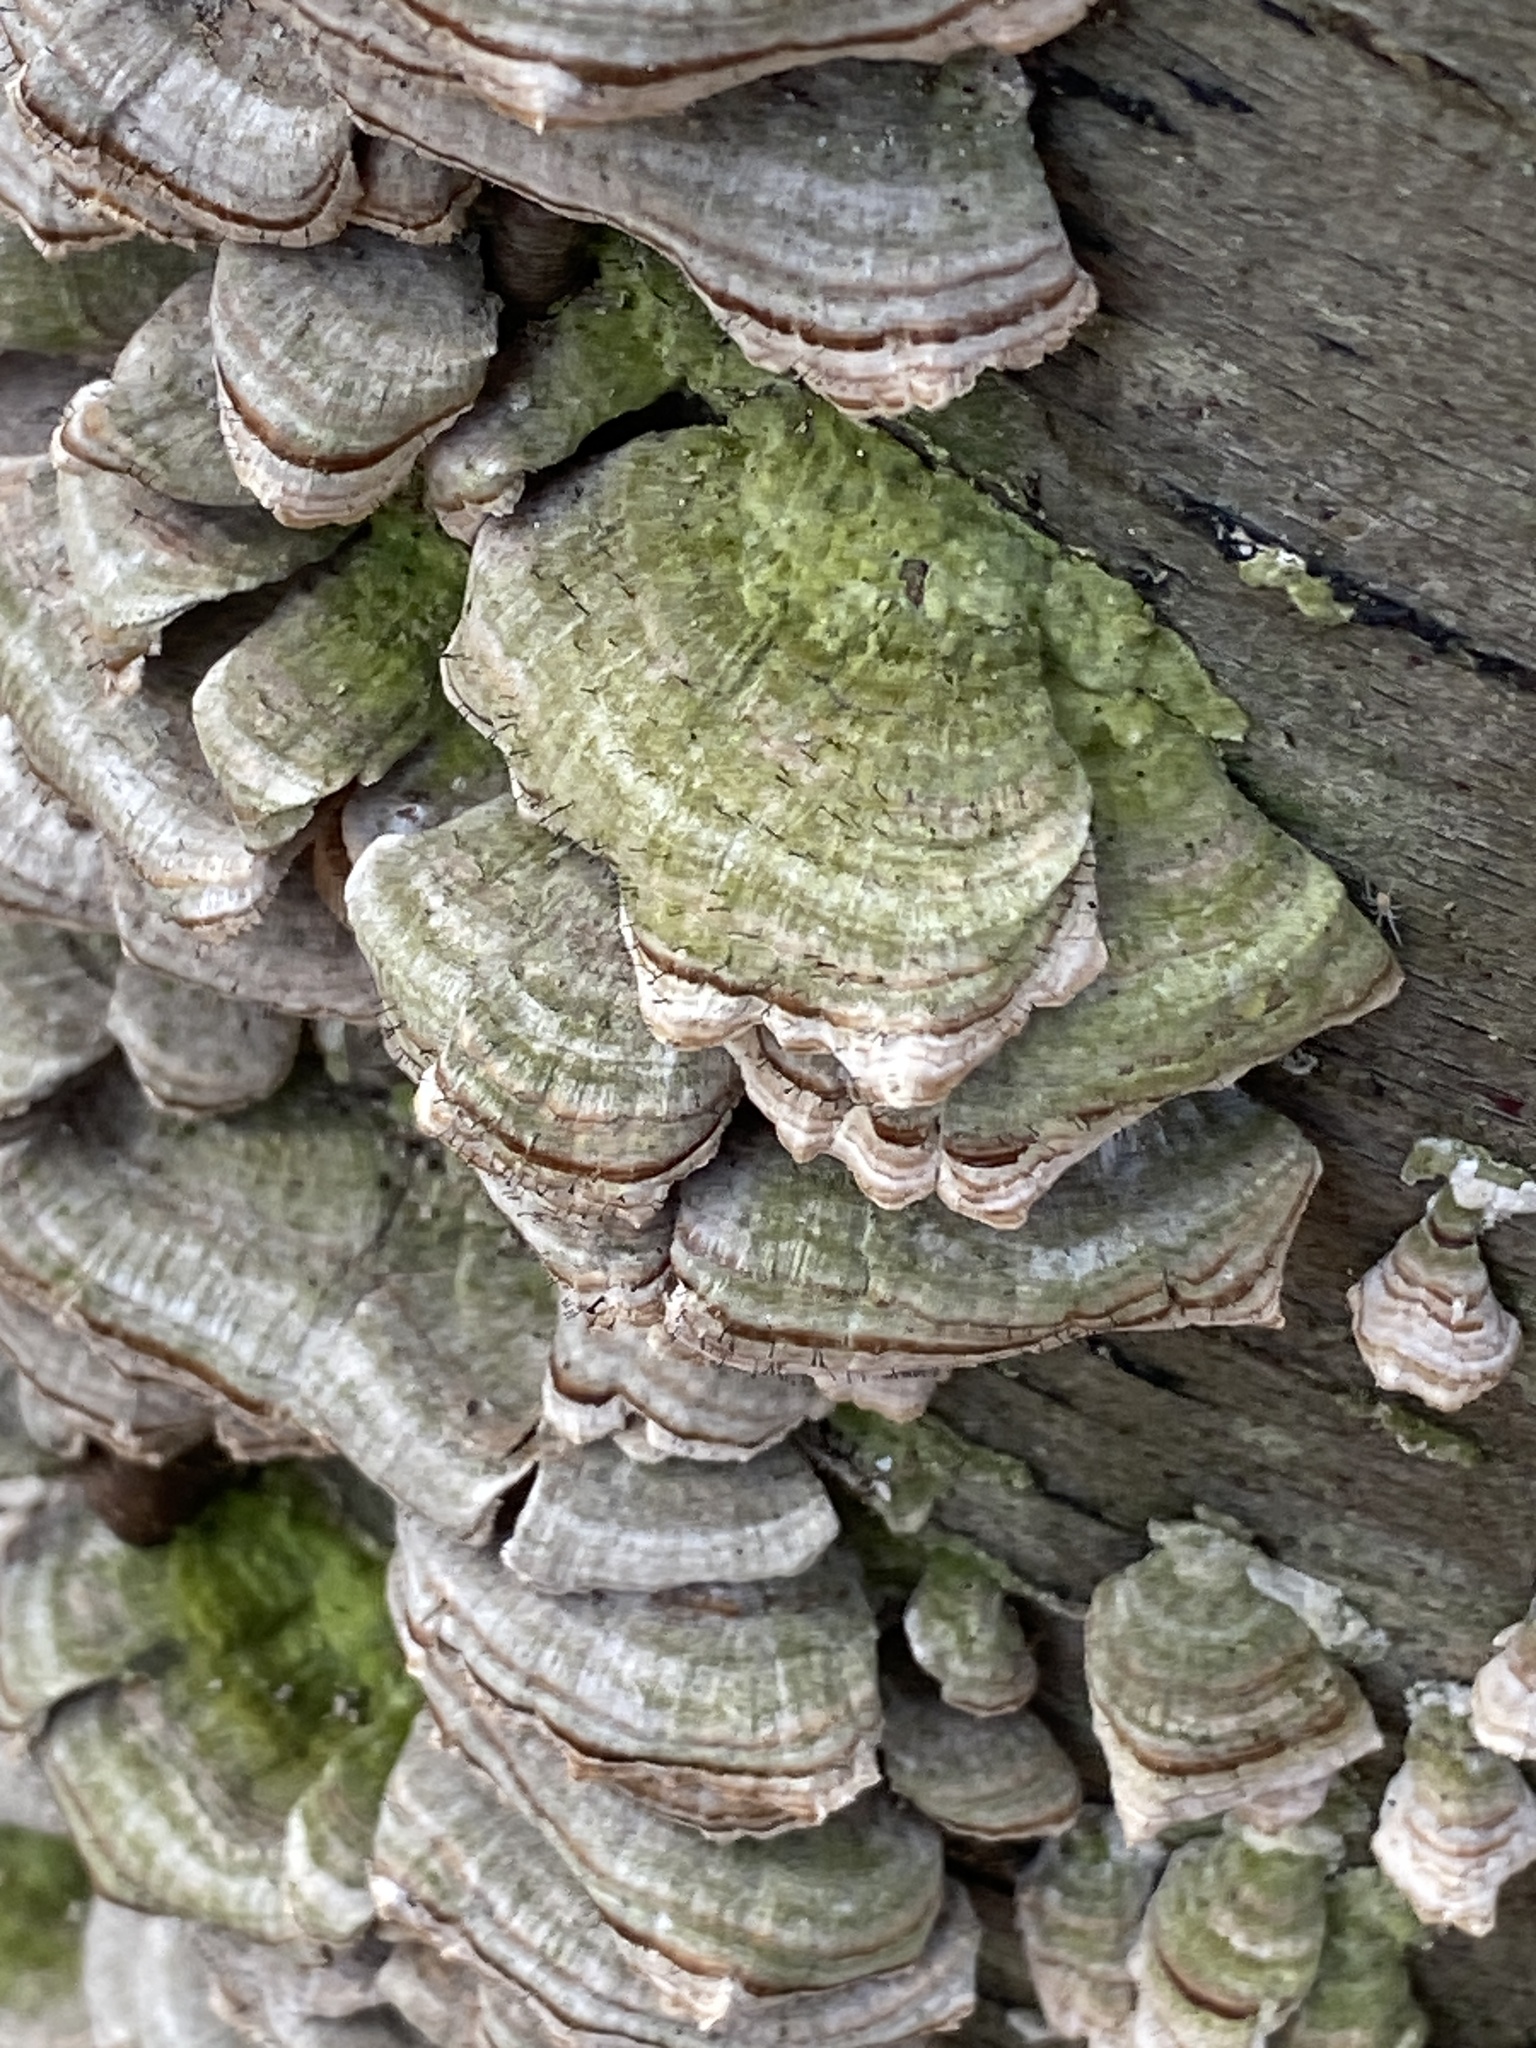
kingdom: Fungi
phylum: Basidiomycota
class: Agaricomycetes
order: Hymenochaetales
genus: Trichaptum
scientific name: Trichaptum biforme
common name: Violet-toothed polypore
